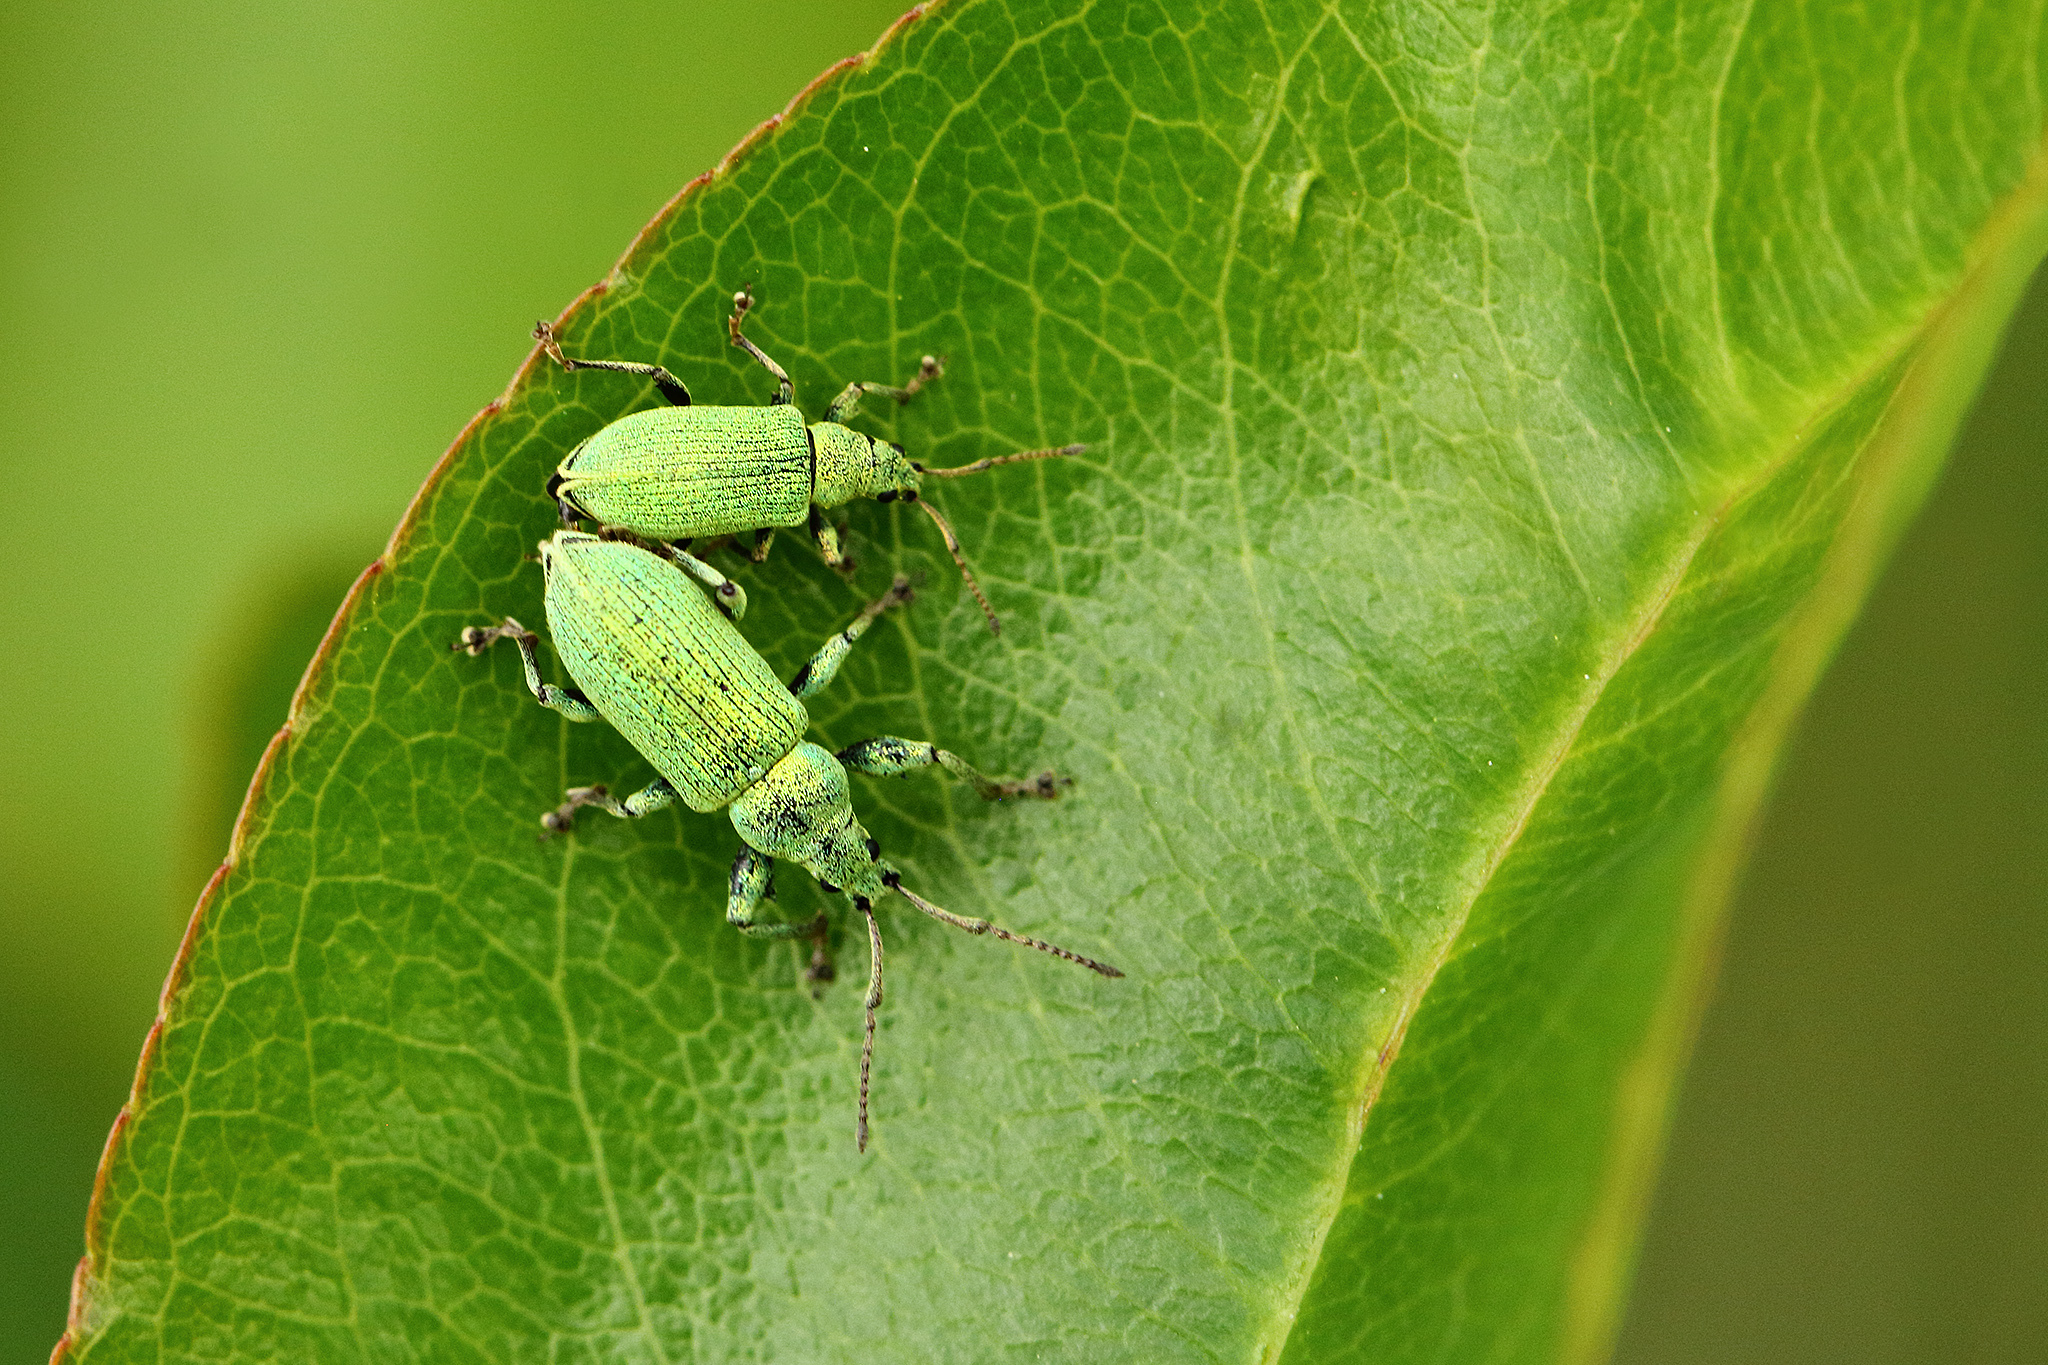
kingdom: Animalia
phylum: Arthropoda
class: Insecta
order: Coleoptera
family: Curculionidae
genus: Phyllobius
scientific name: Phyllobius maculicornis
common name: Green leaf weevil
